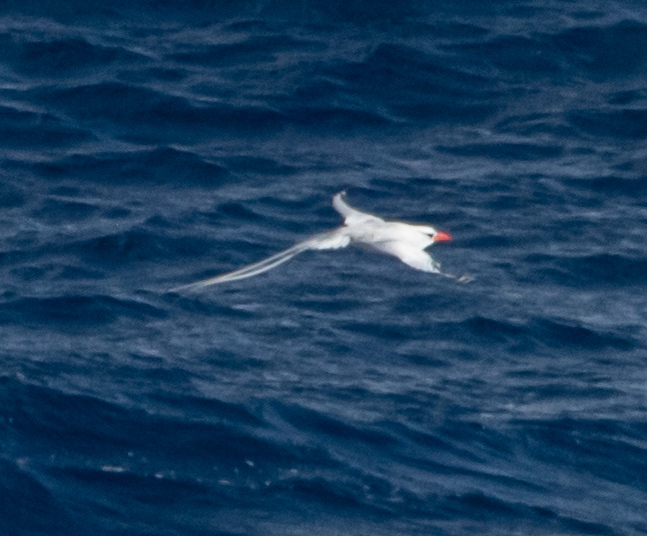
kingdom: Animalia
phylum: Chordata
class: Aves
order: Phaethontiformes
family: Phaethontidae
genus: Phaethon
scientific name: Phaethon aethereus
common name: Red-billed tropicbird
